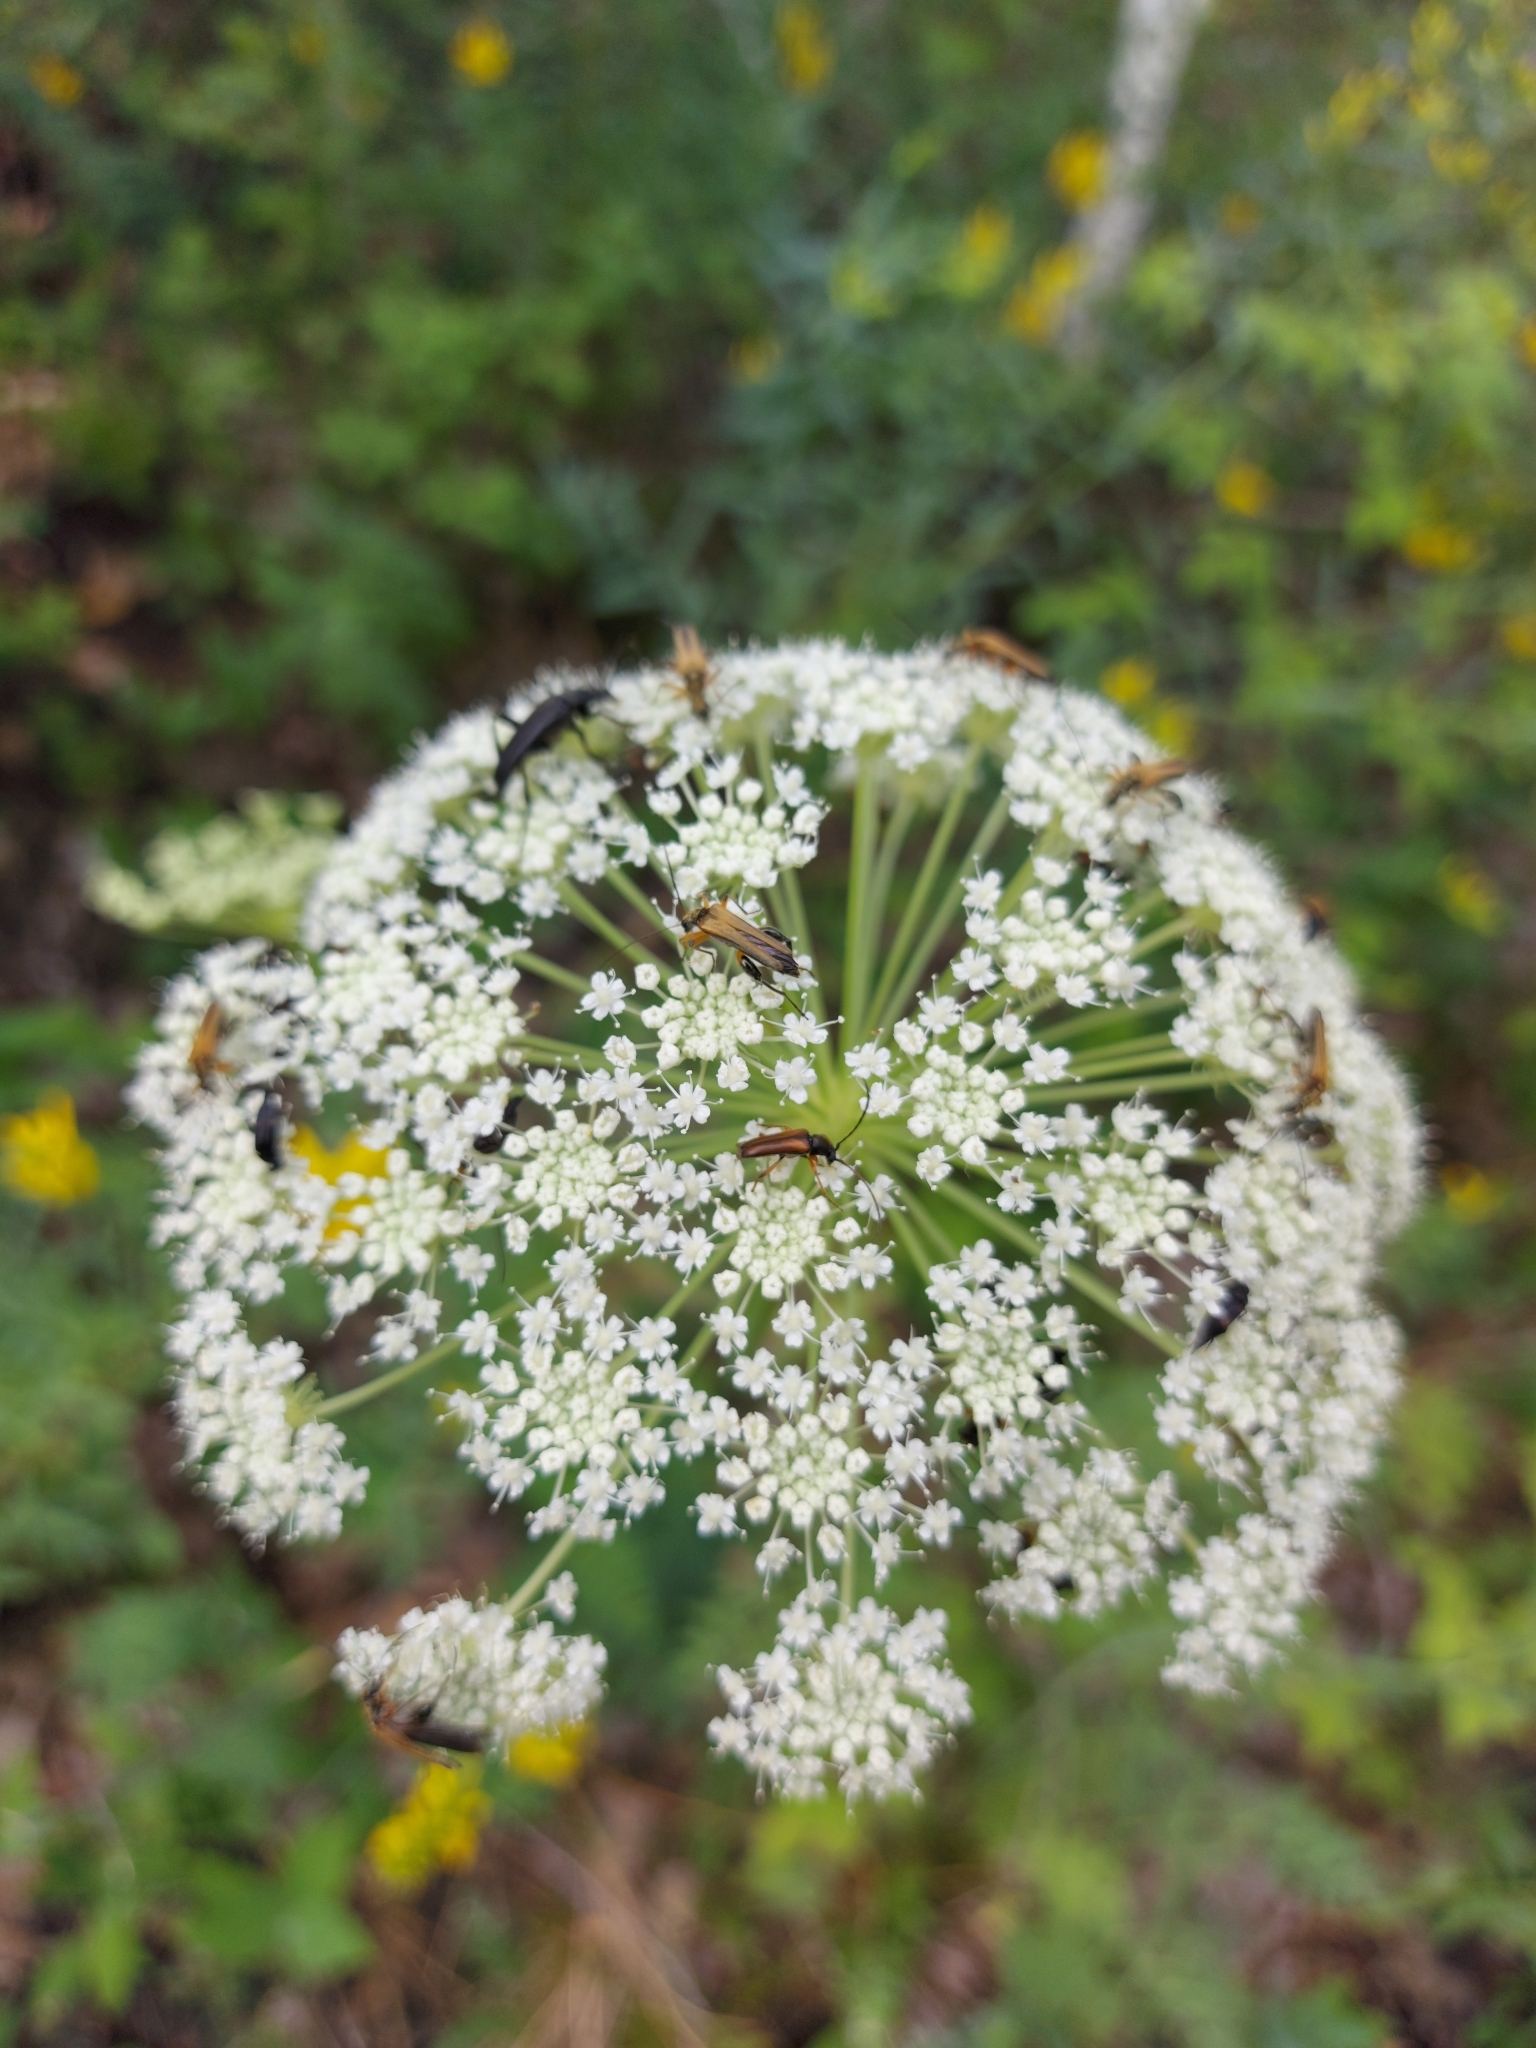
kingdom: Animalia
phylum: Arthropoda
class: Insecta
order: Coleoptera
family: Cerambycidae
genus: Alosterna
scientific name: Alosterna tabacicolor
